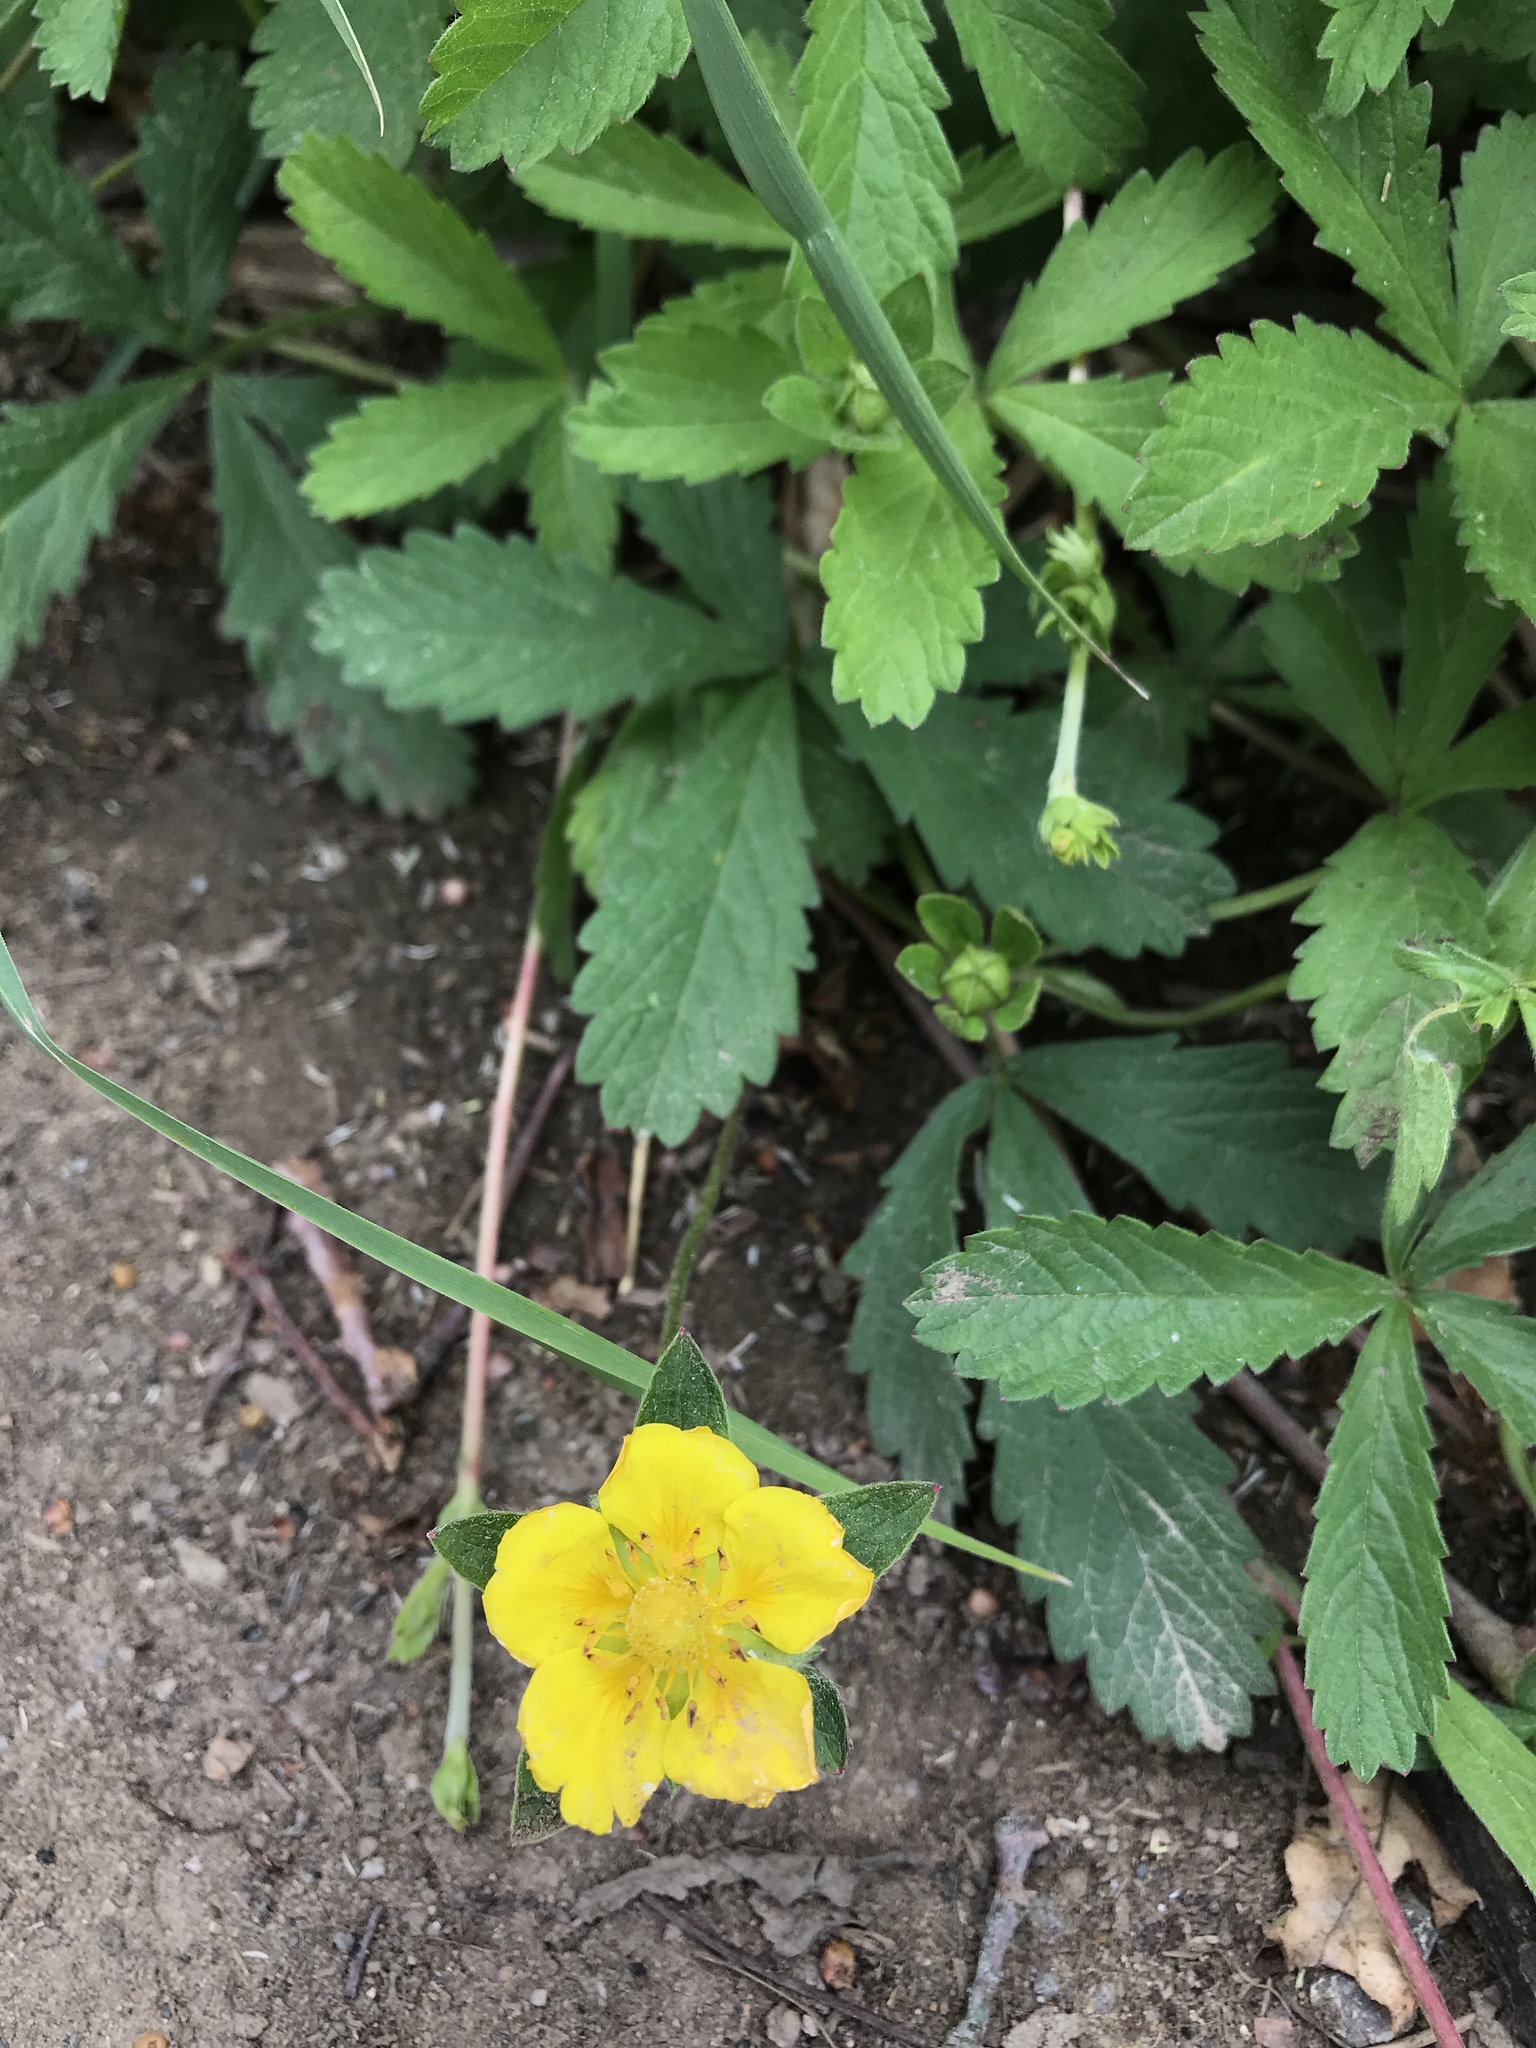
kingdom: Plantae
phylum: Tracheophyta
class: Magnoliopsida
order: Rosales
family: Rosaceae
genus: Potentilla
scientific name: Potentilla reptans
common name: Creeping cinquefoil
